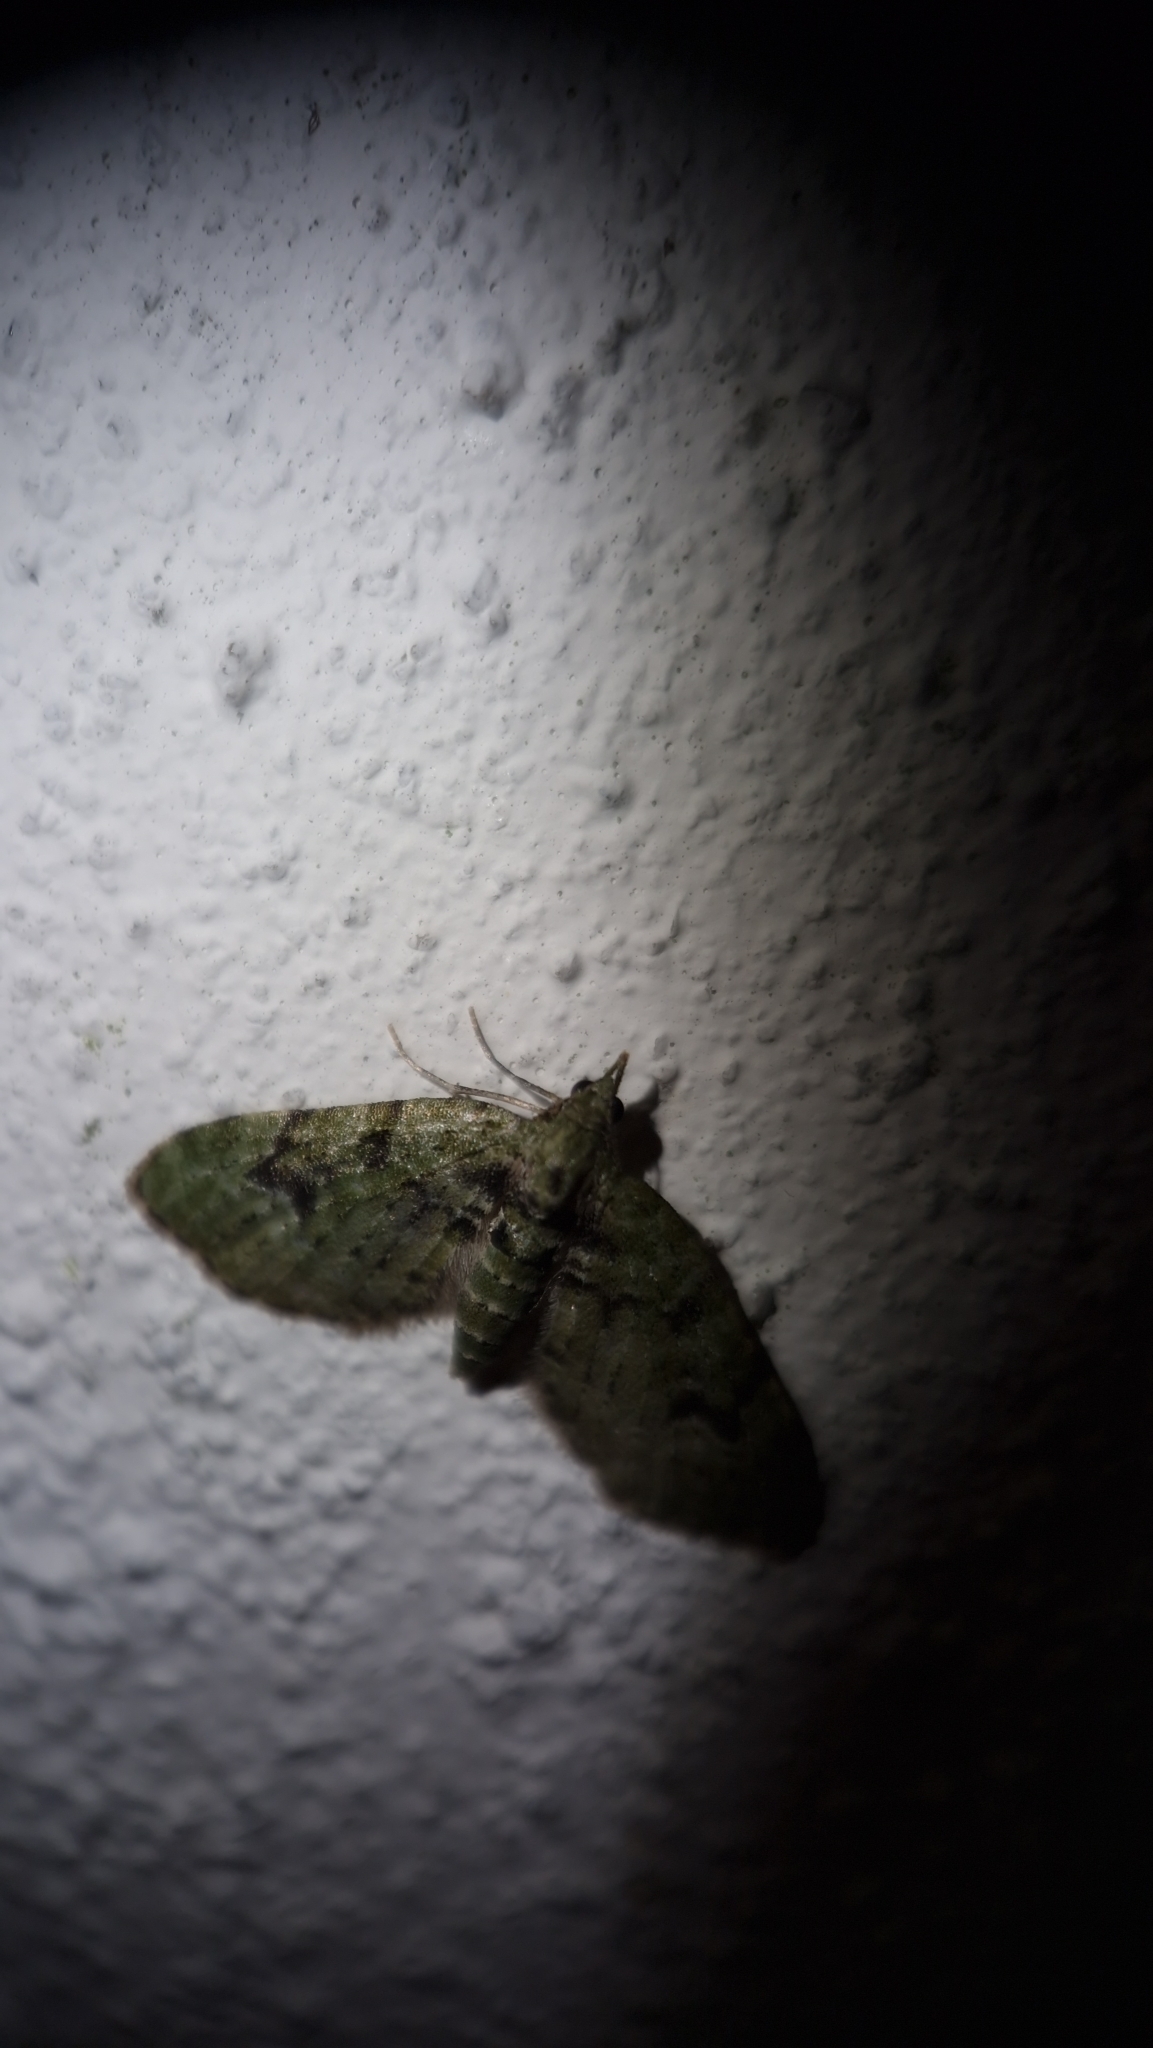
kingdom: Animalia
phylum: Arthropoda
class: Insecta
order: Lepidoptera
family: Geometridae
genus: Chloroclystis
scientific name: Chloroclystis v-ata
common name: V-pug
